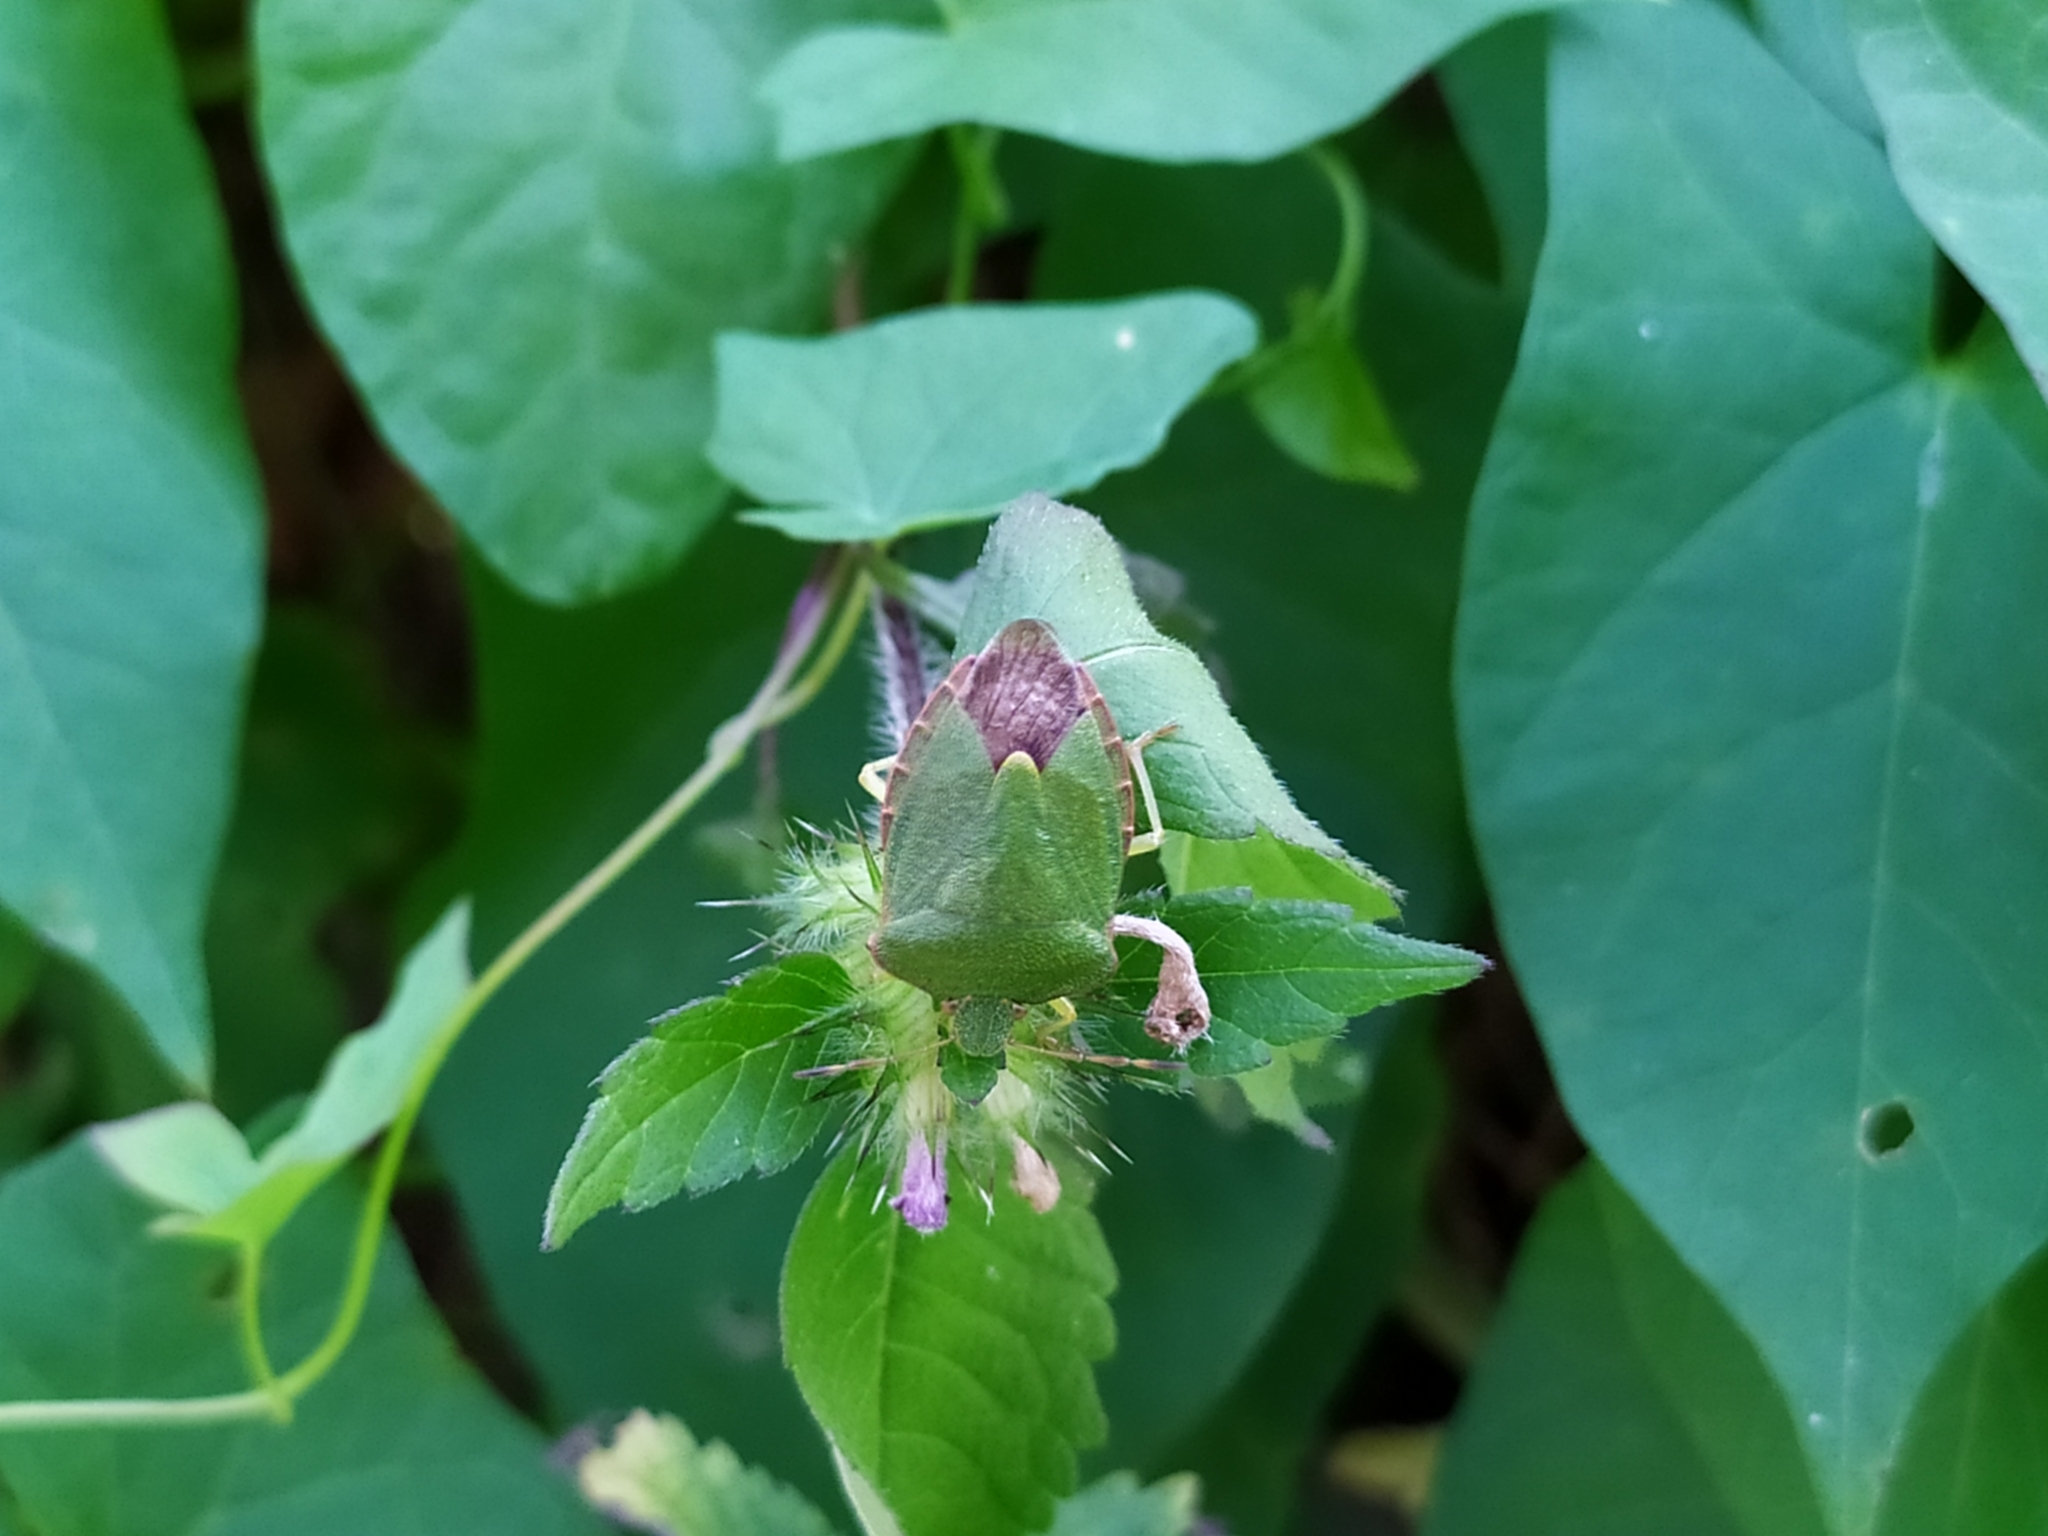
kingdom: Animalia
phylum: Arthropoda
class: Insecta
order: Hemiptera
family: Pentatomidae
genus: Palomena
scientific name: Palomena prasina
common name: Green shieldbug
